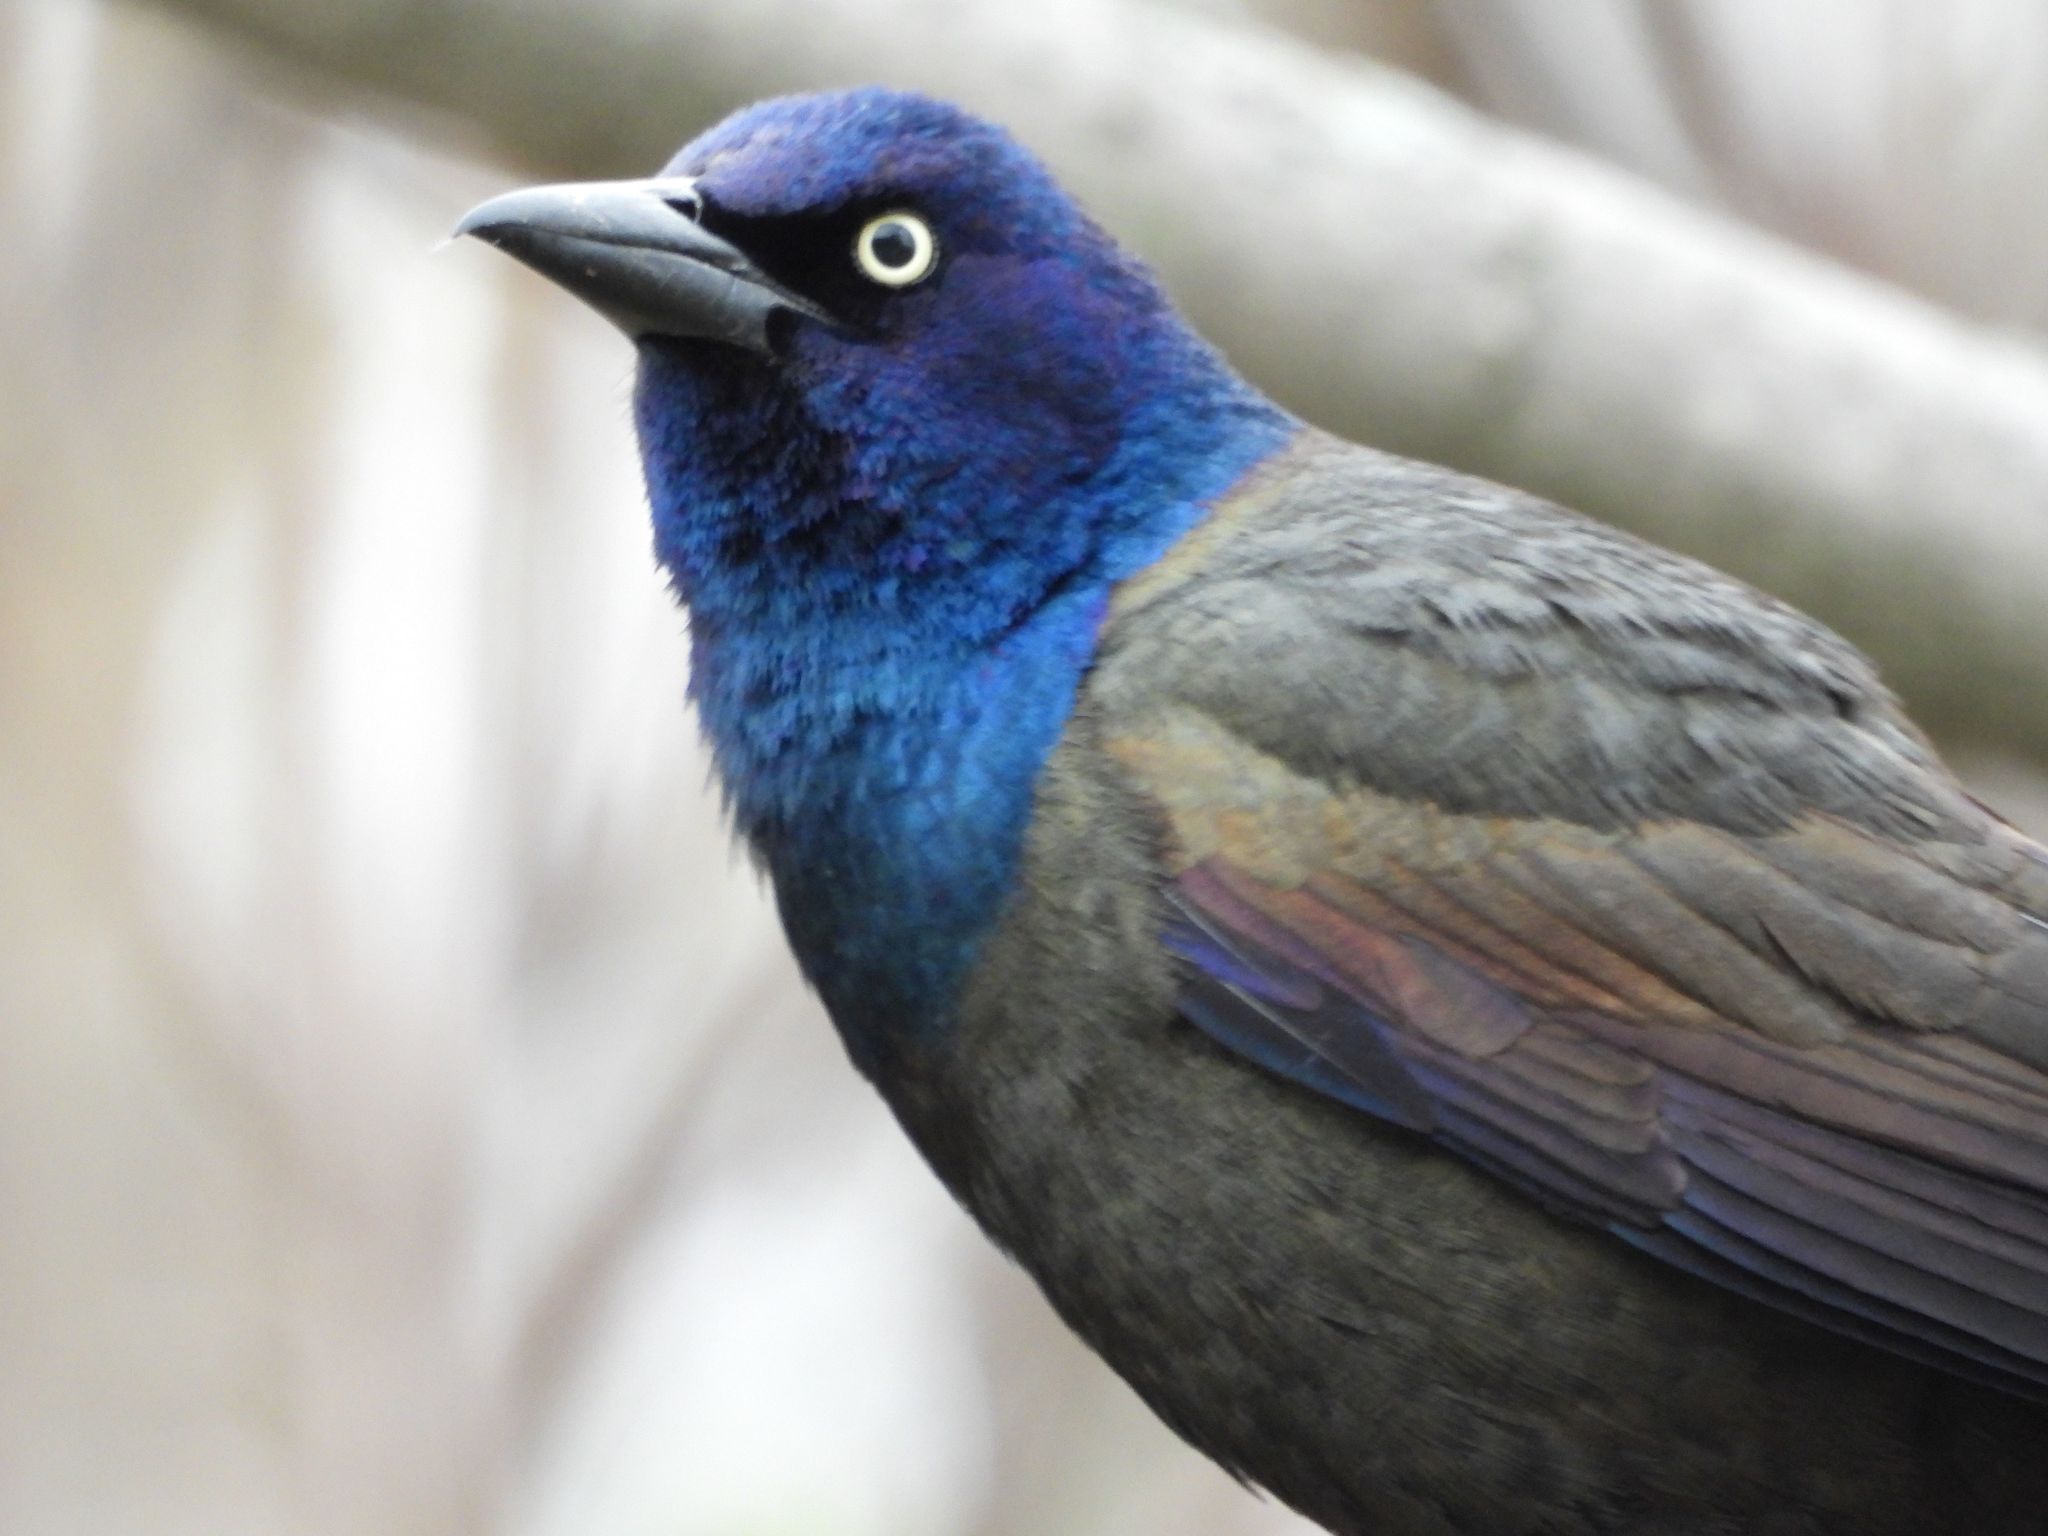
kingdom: Animalia
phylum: Chordata
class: Aves
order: Passeriformes
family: Icteridae
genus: Quiscalus
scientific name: Quiscalus quiscula
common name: Common grackle
